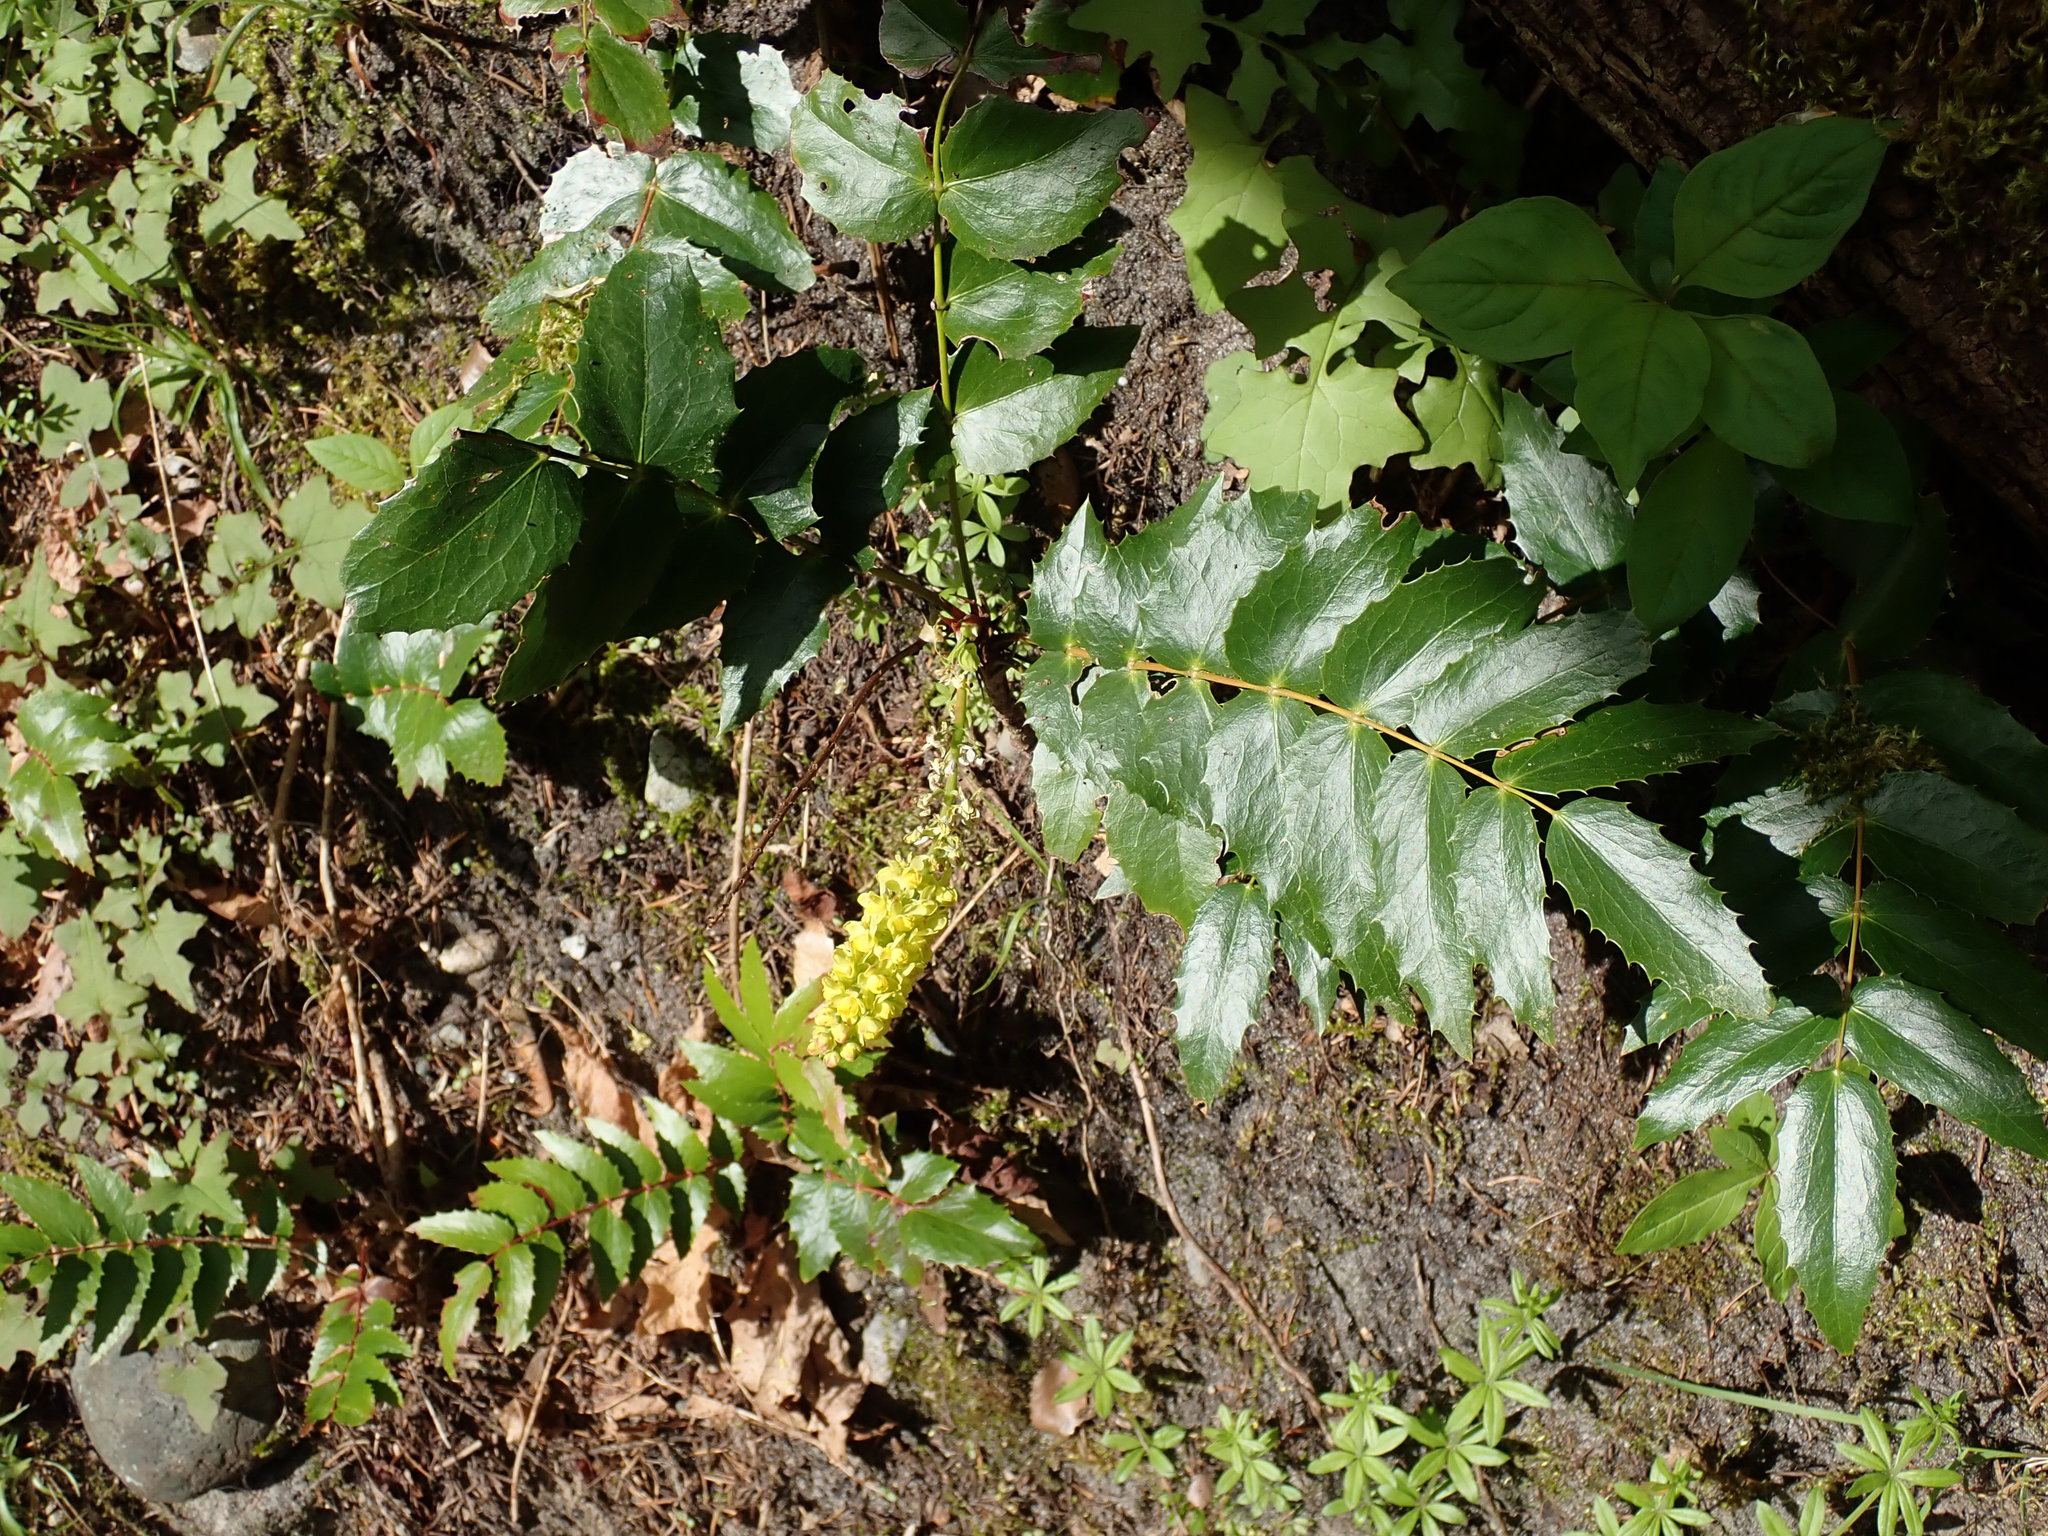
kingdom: Plantae
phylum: Tracheophyta
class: Magnoliopsida
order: Ranunculales
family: Berberidaceae
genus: Mahonia
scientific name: Mahonia nervosa
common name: Cascade oregon-grape
